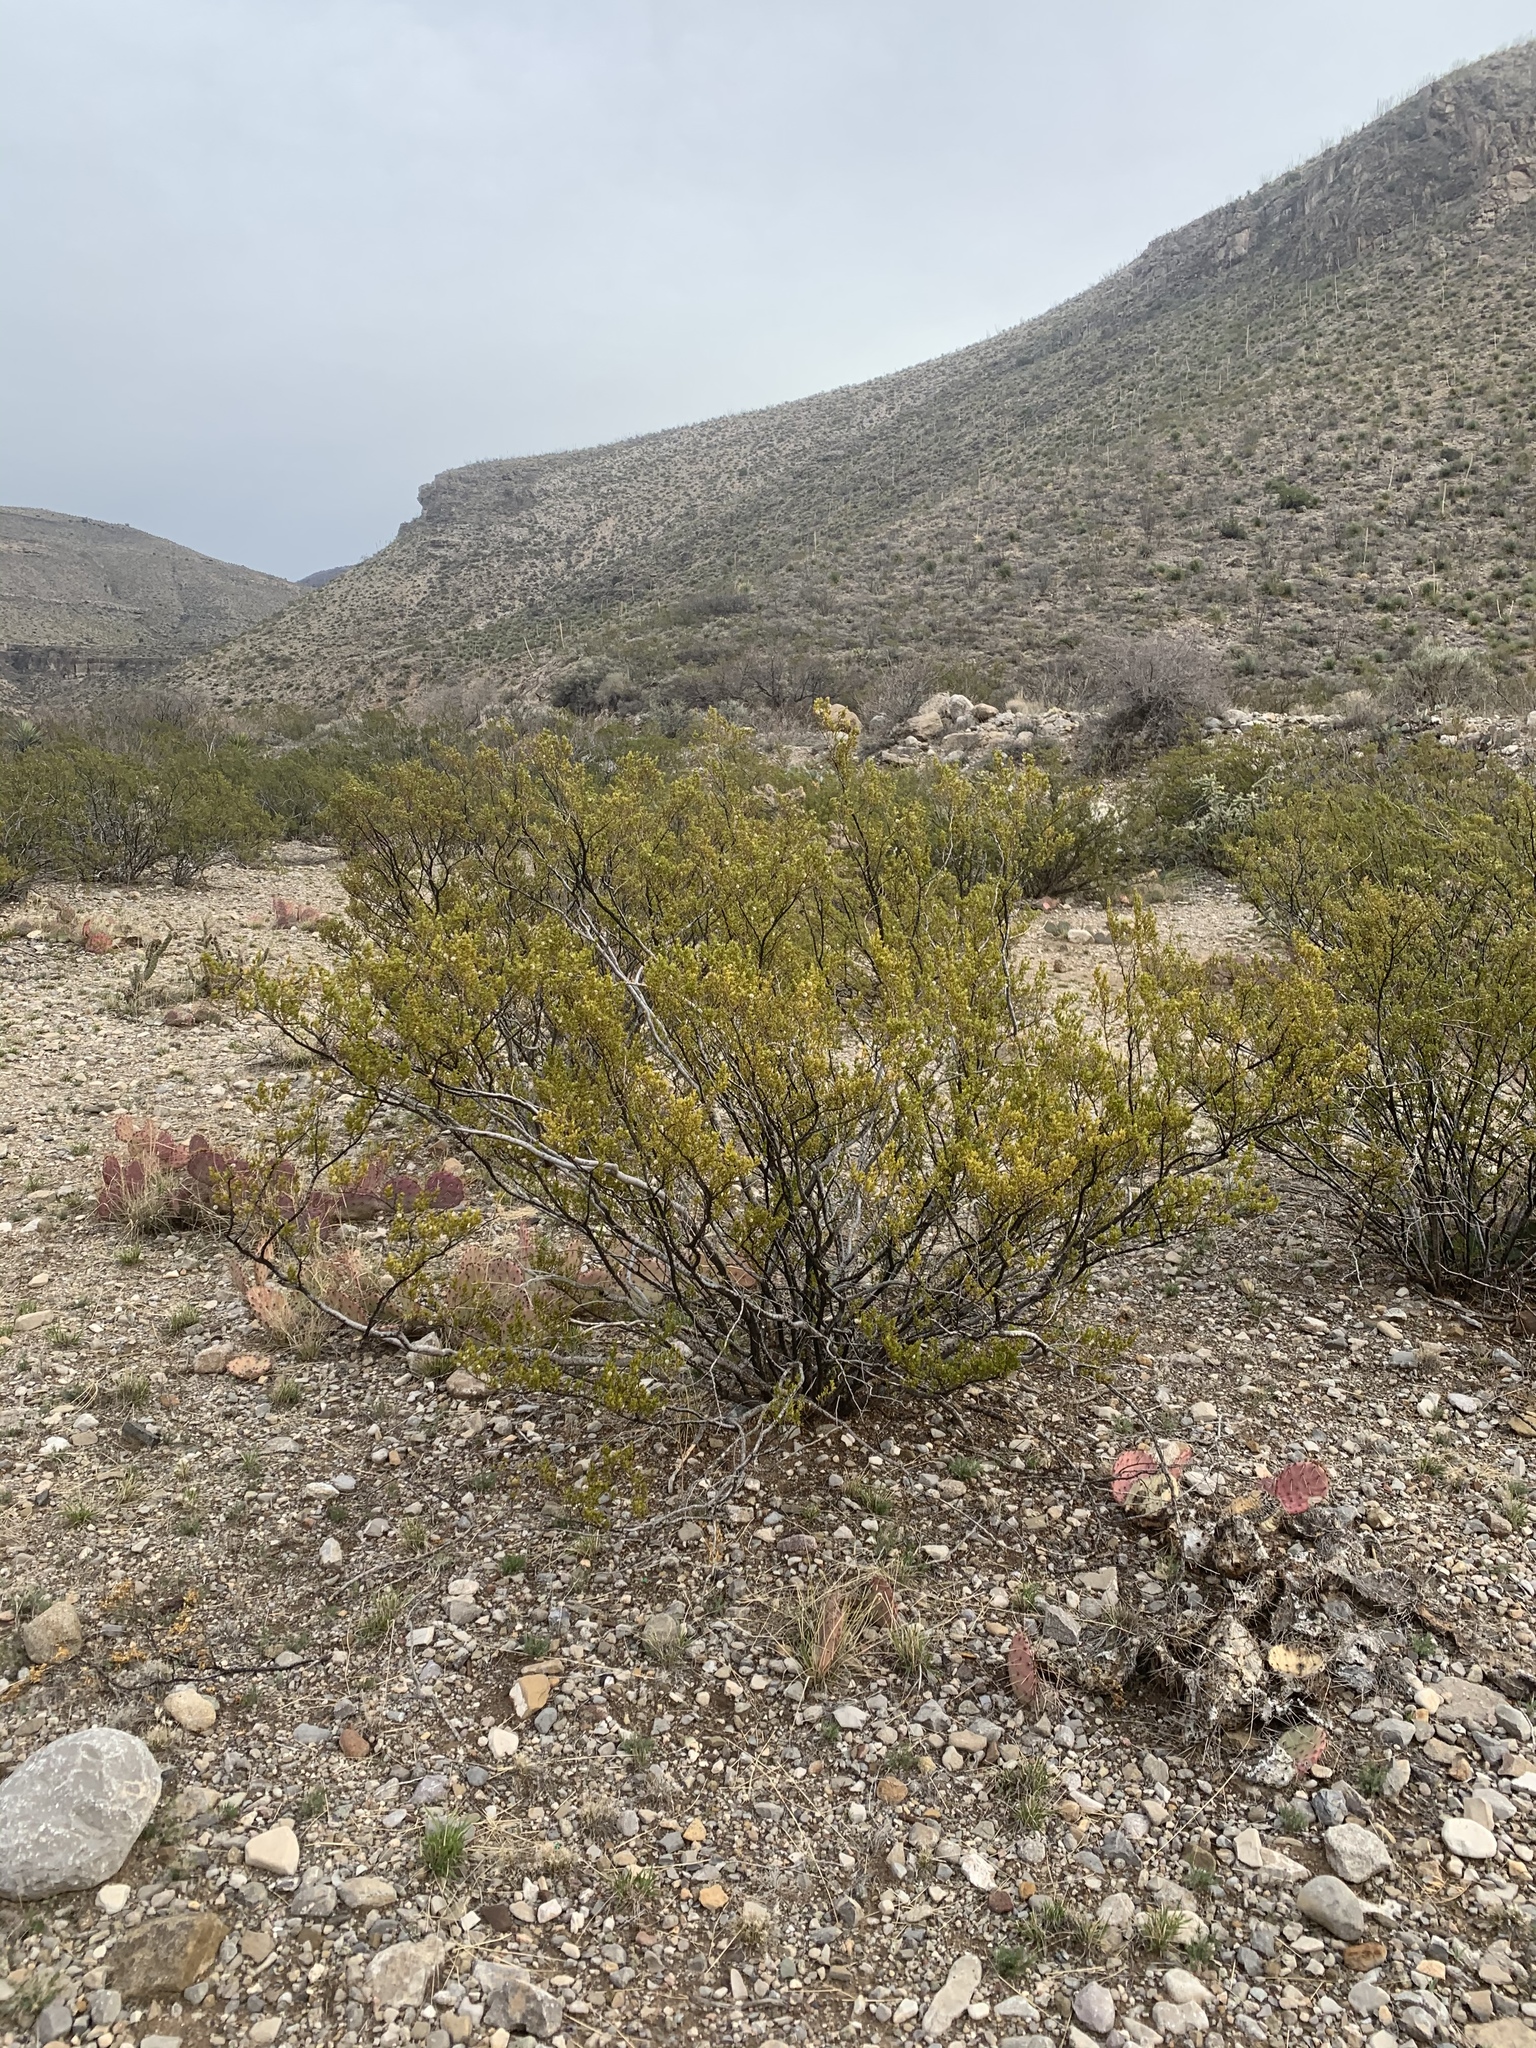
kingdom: Plantae
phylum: Tracheophyta
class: Magnoliopsida
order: Zygophyllales
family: Zygophyllaceae
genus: Larrea
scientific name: Larrea tridentata
